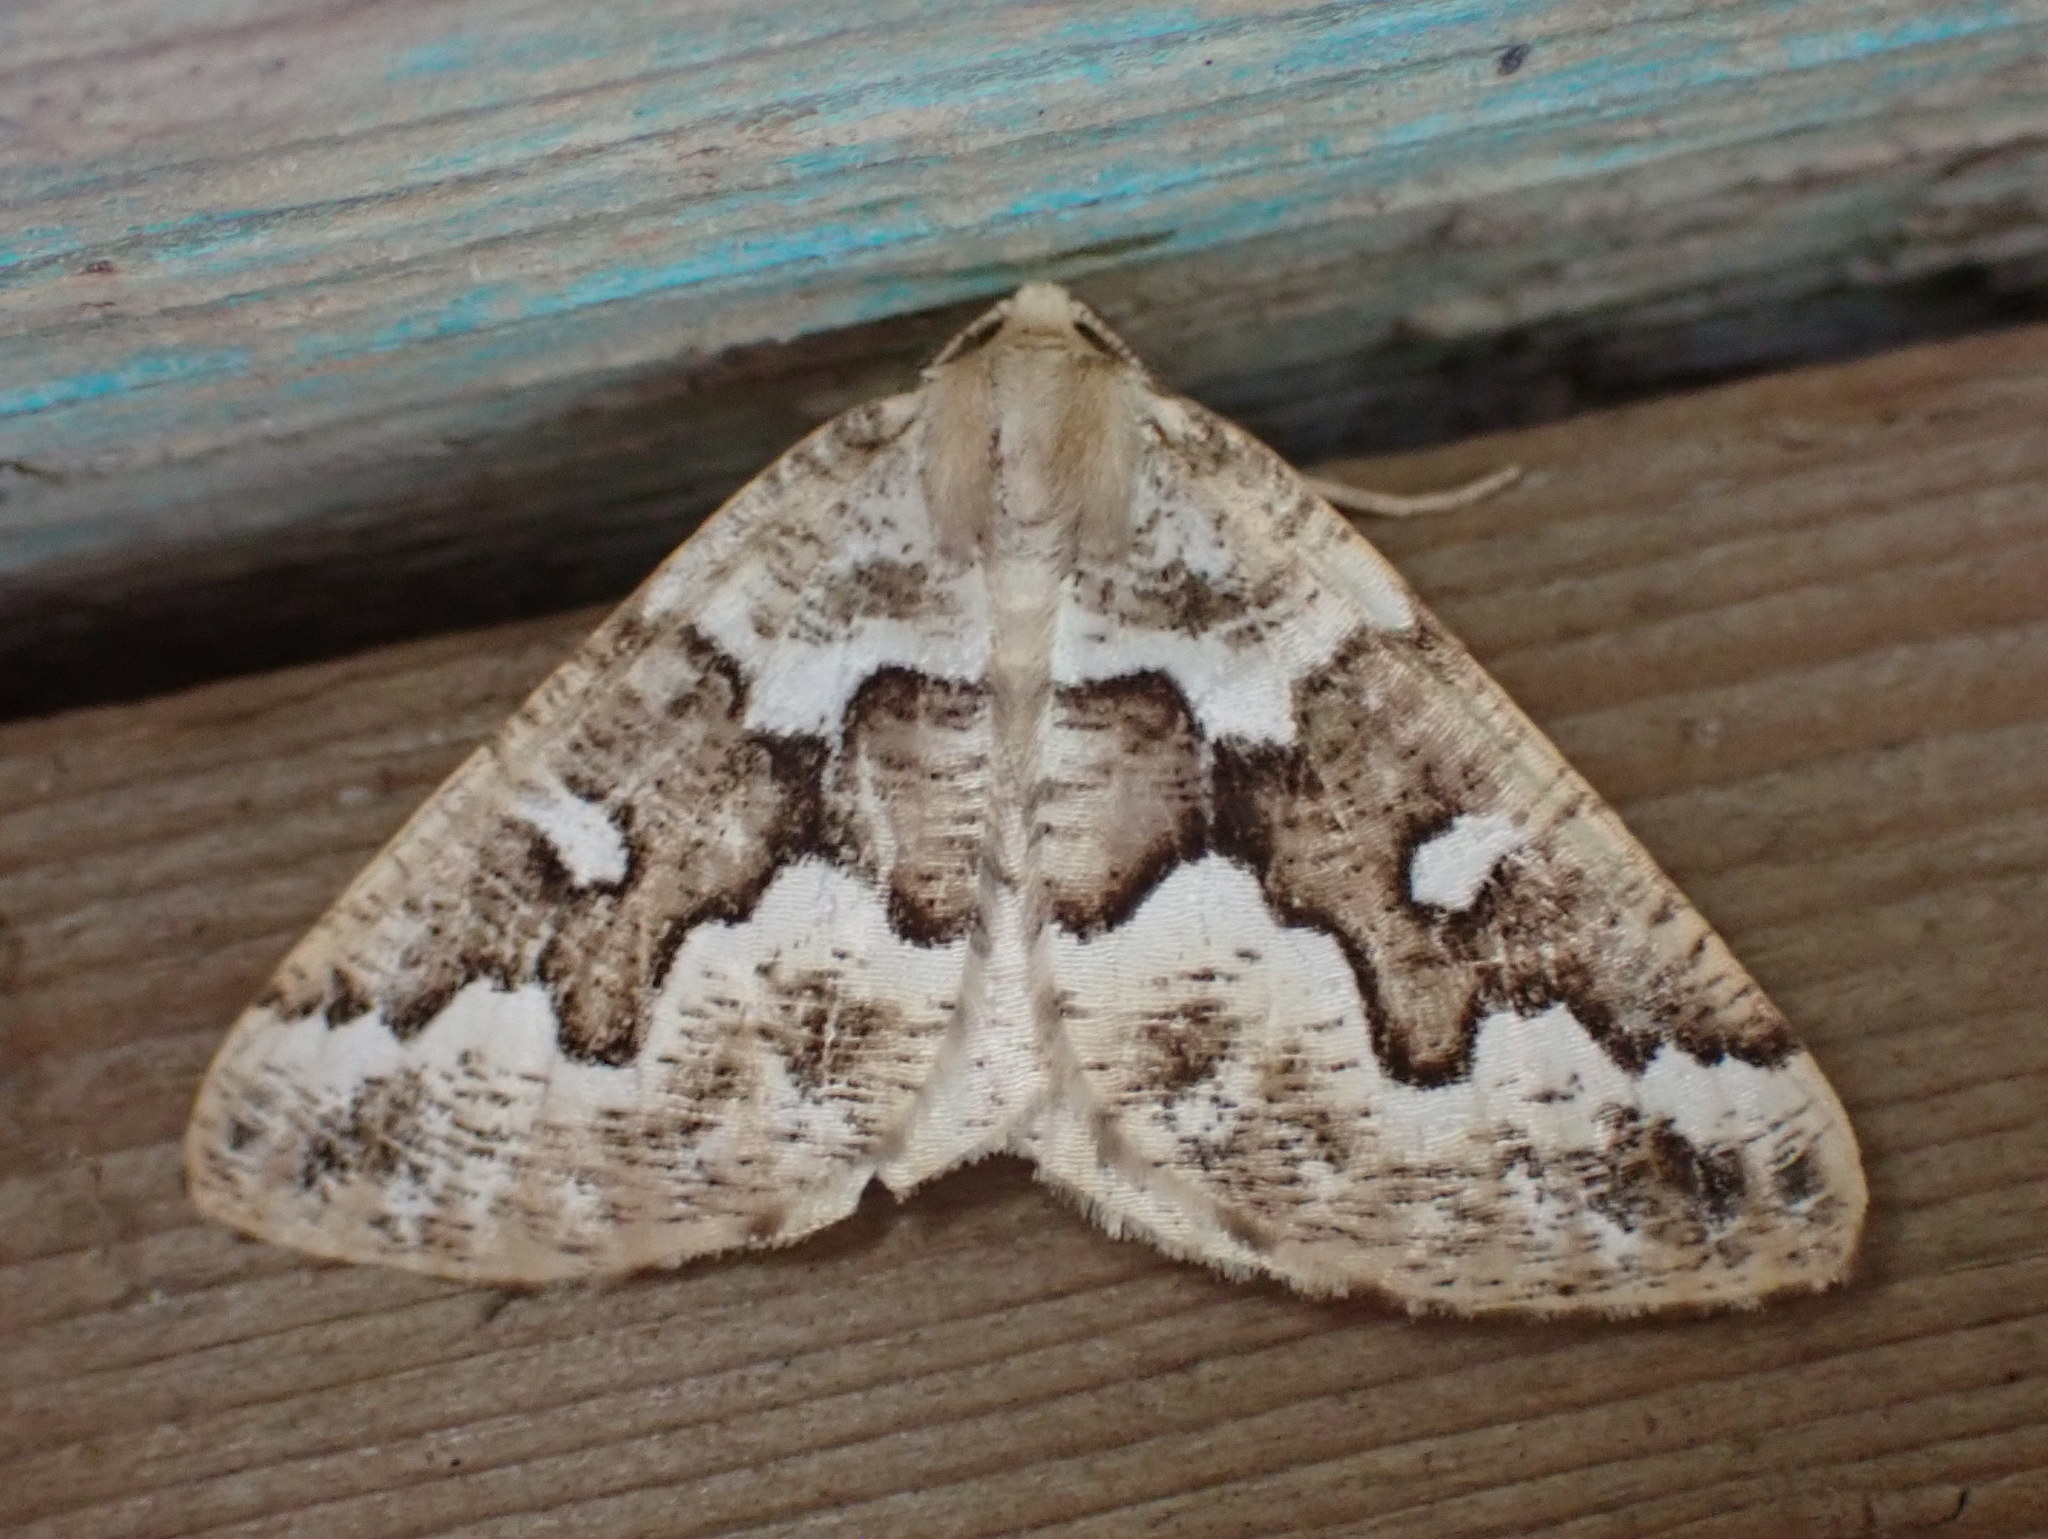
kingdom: Animalia
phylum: Arthropoda
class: Insecta
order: Lepidoptera
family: Geometridae
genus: Caripeta
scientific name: Caripeta divisata
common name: Gray spruce looper
